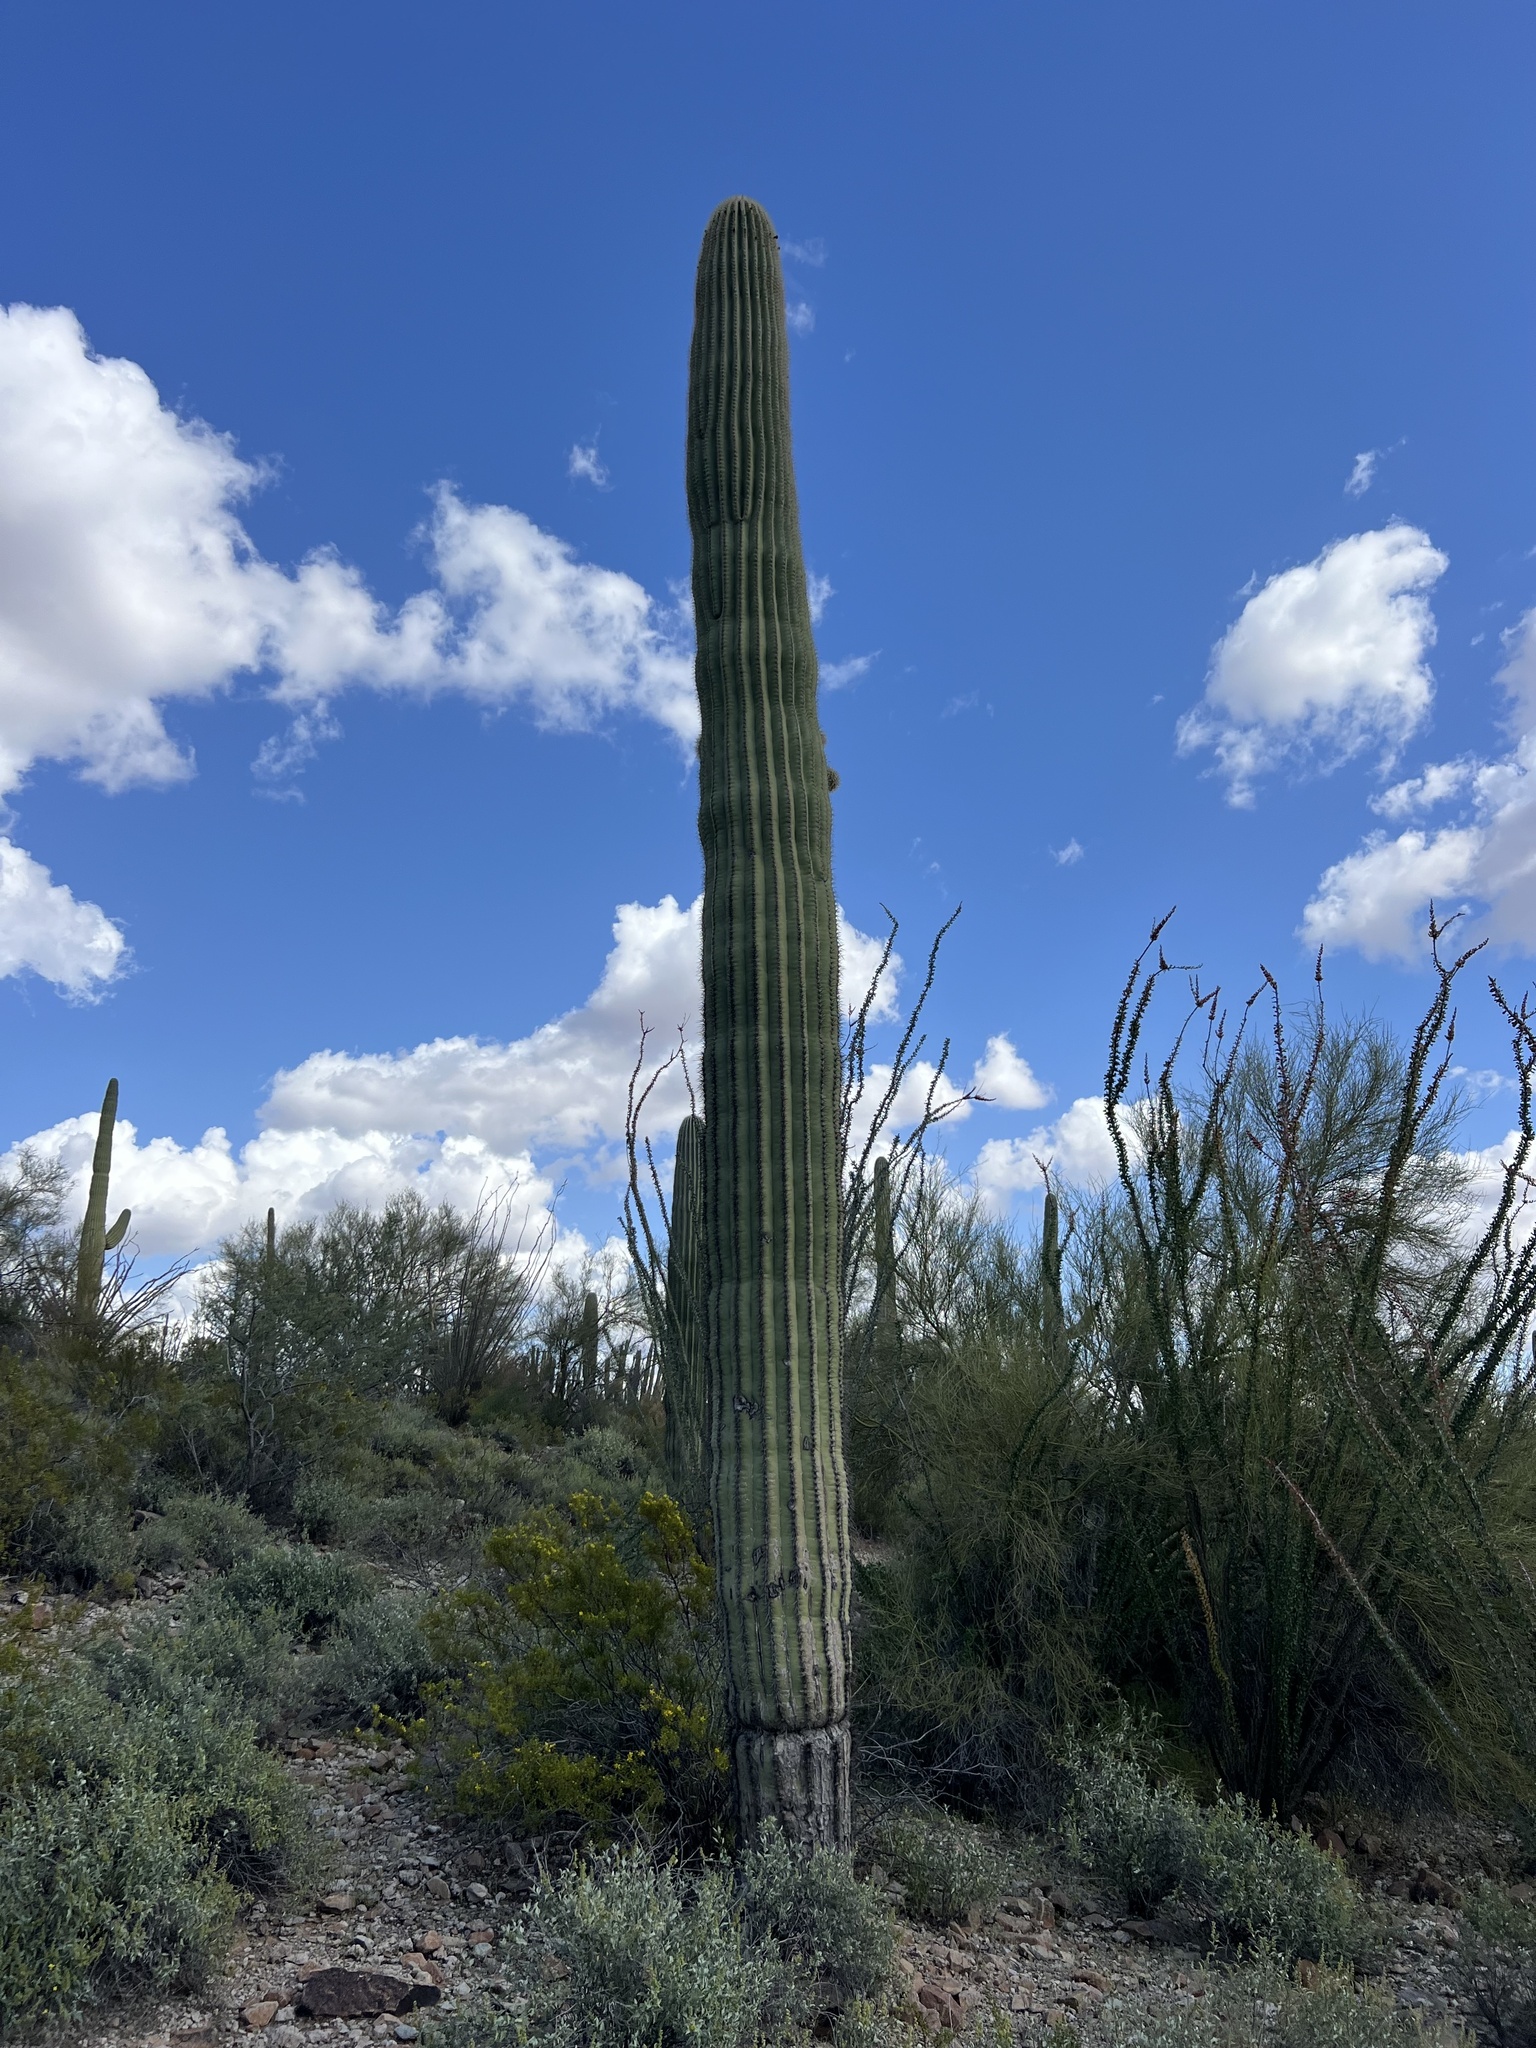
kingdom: Plantae
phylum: Tracheophyta
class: Magnoliopsida
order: Caryophyllales
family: Cactaceae
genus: Carnegiea
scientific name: Carnegiea gigantea
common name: Saguaro
